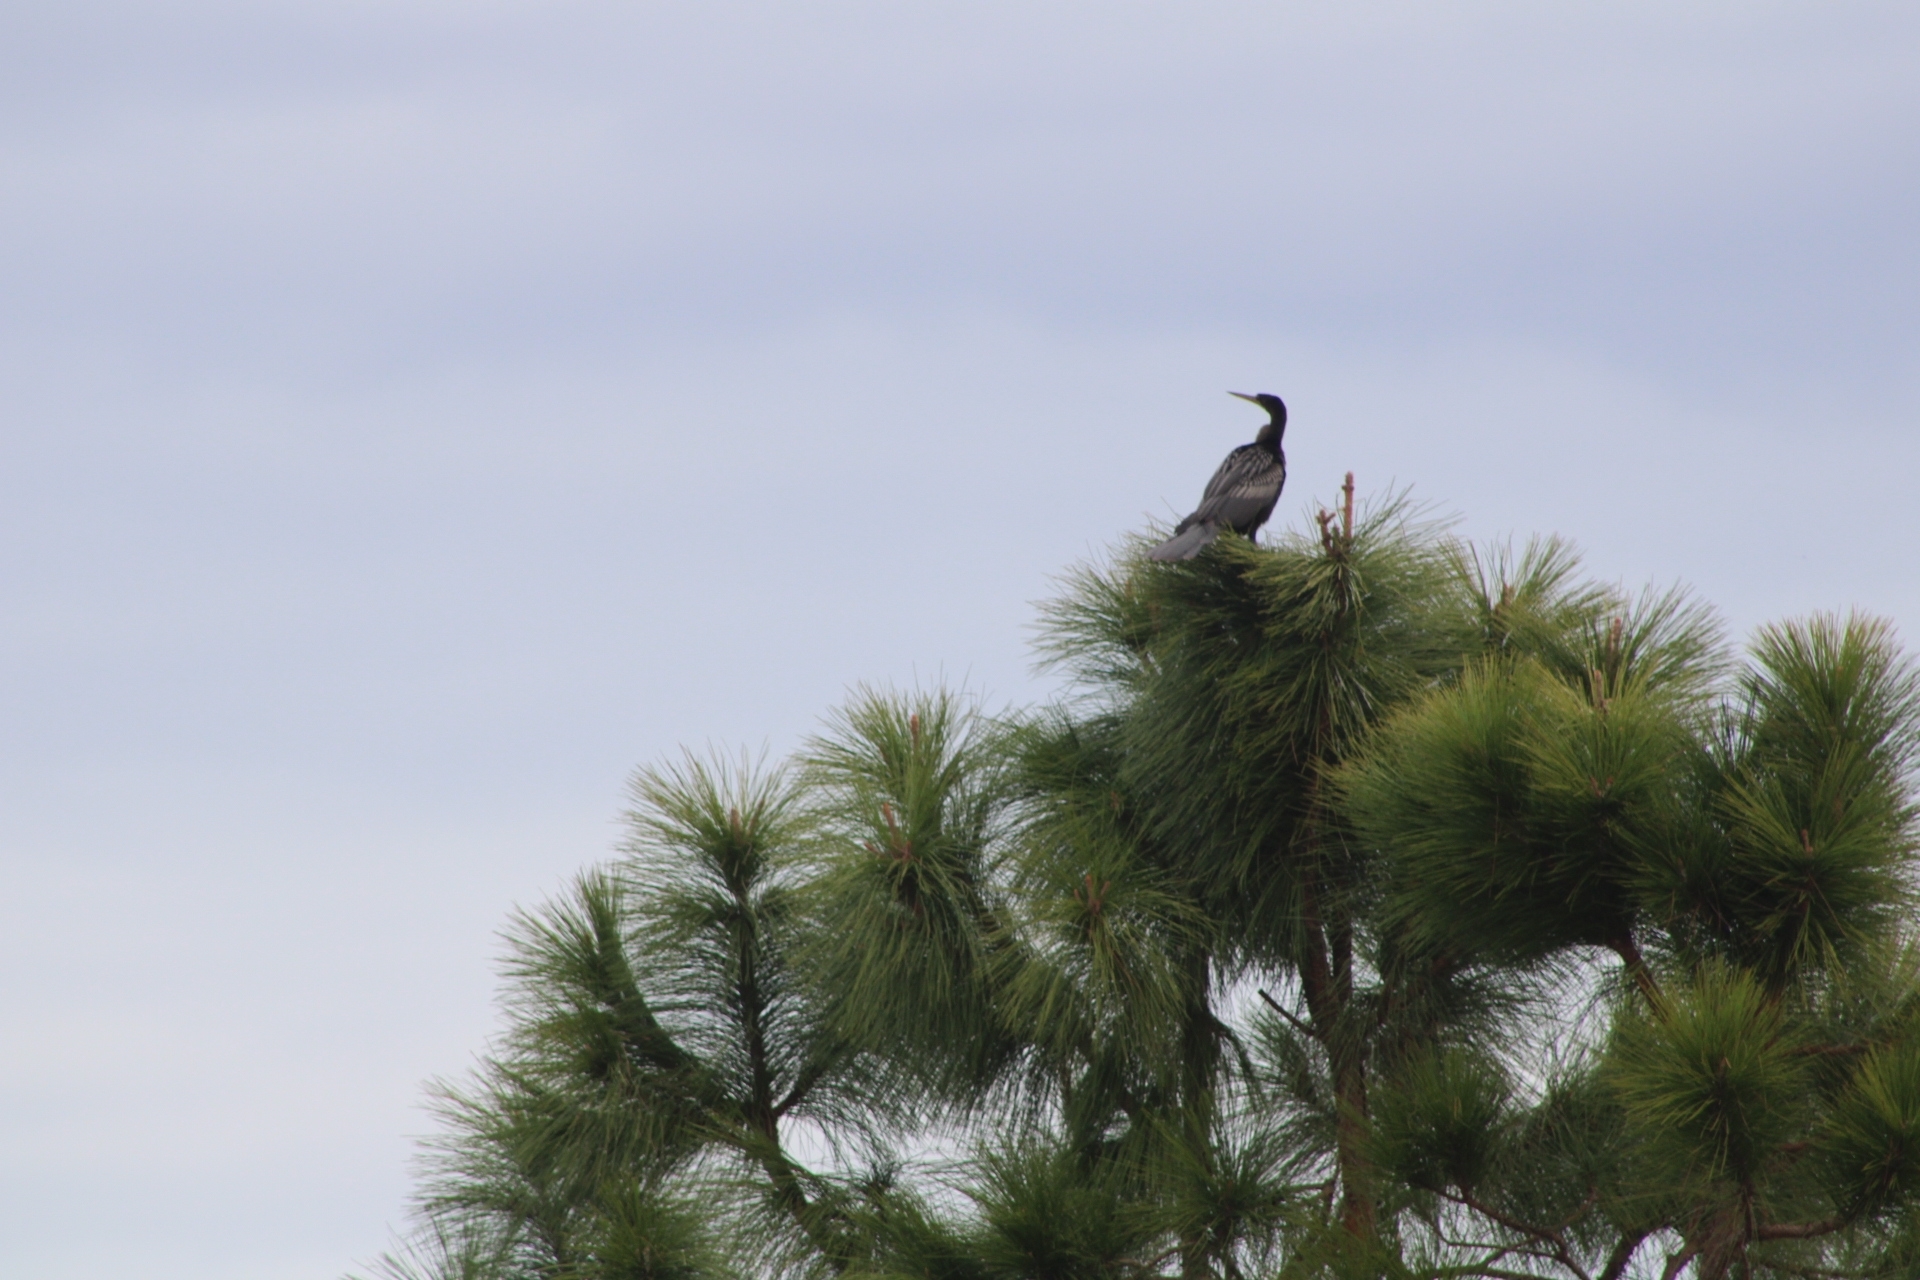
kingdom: Animalia
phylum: Chordata
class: Aves
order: Suliformes
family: Anhingidae
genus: Anhinga
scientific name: Anhinga anhinga
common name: Anhinga
